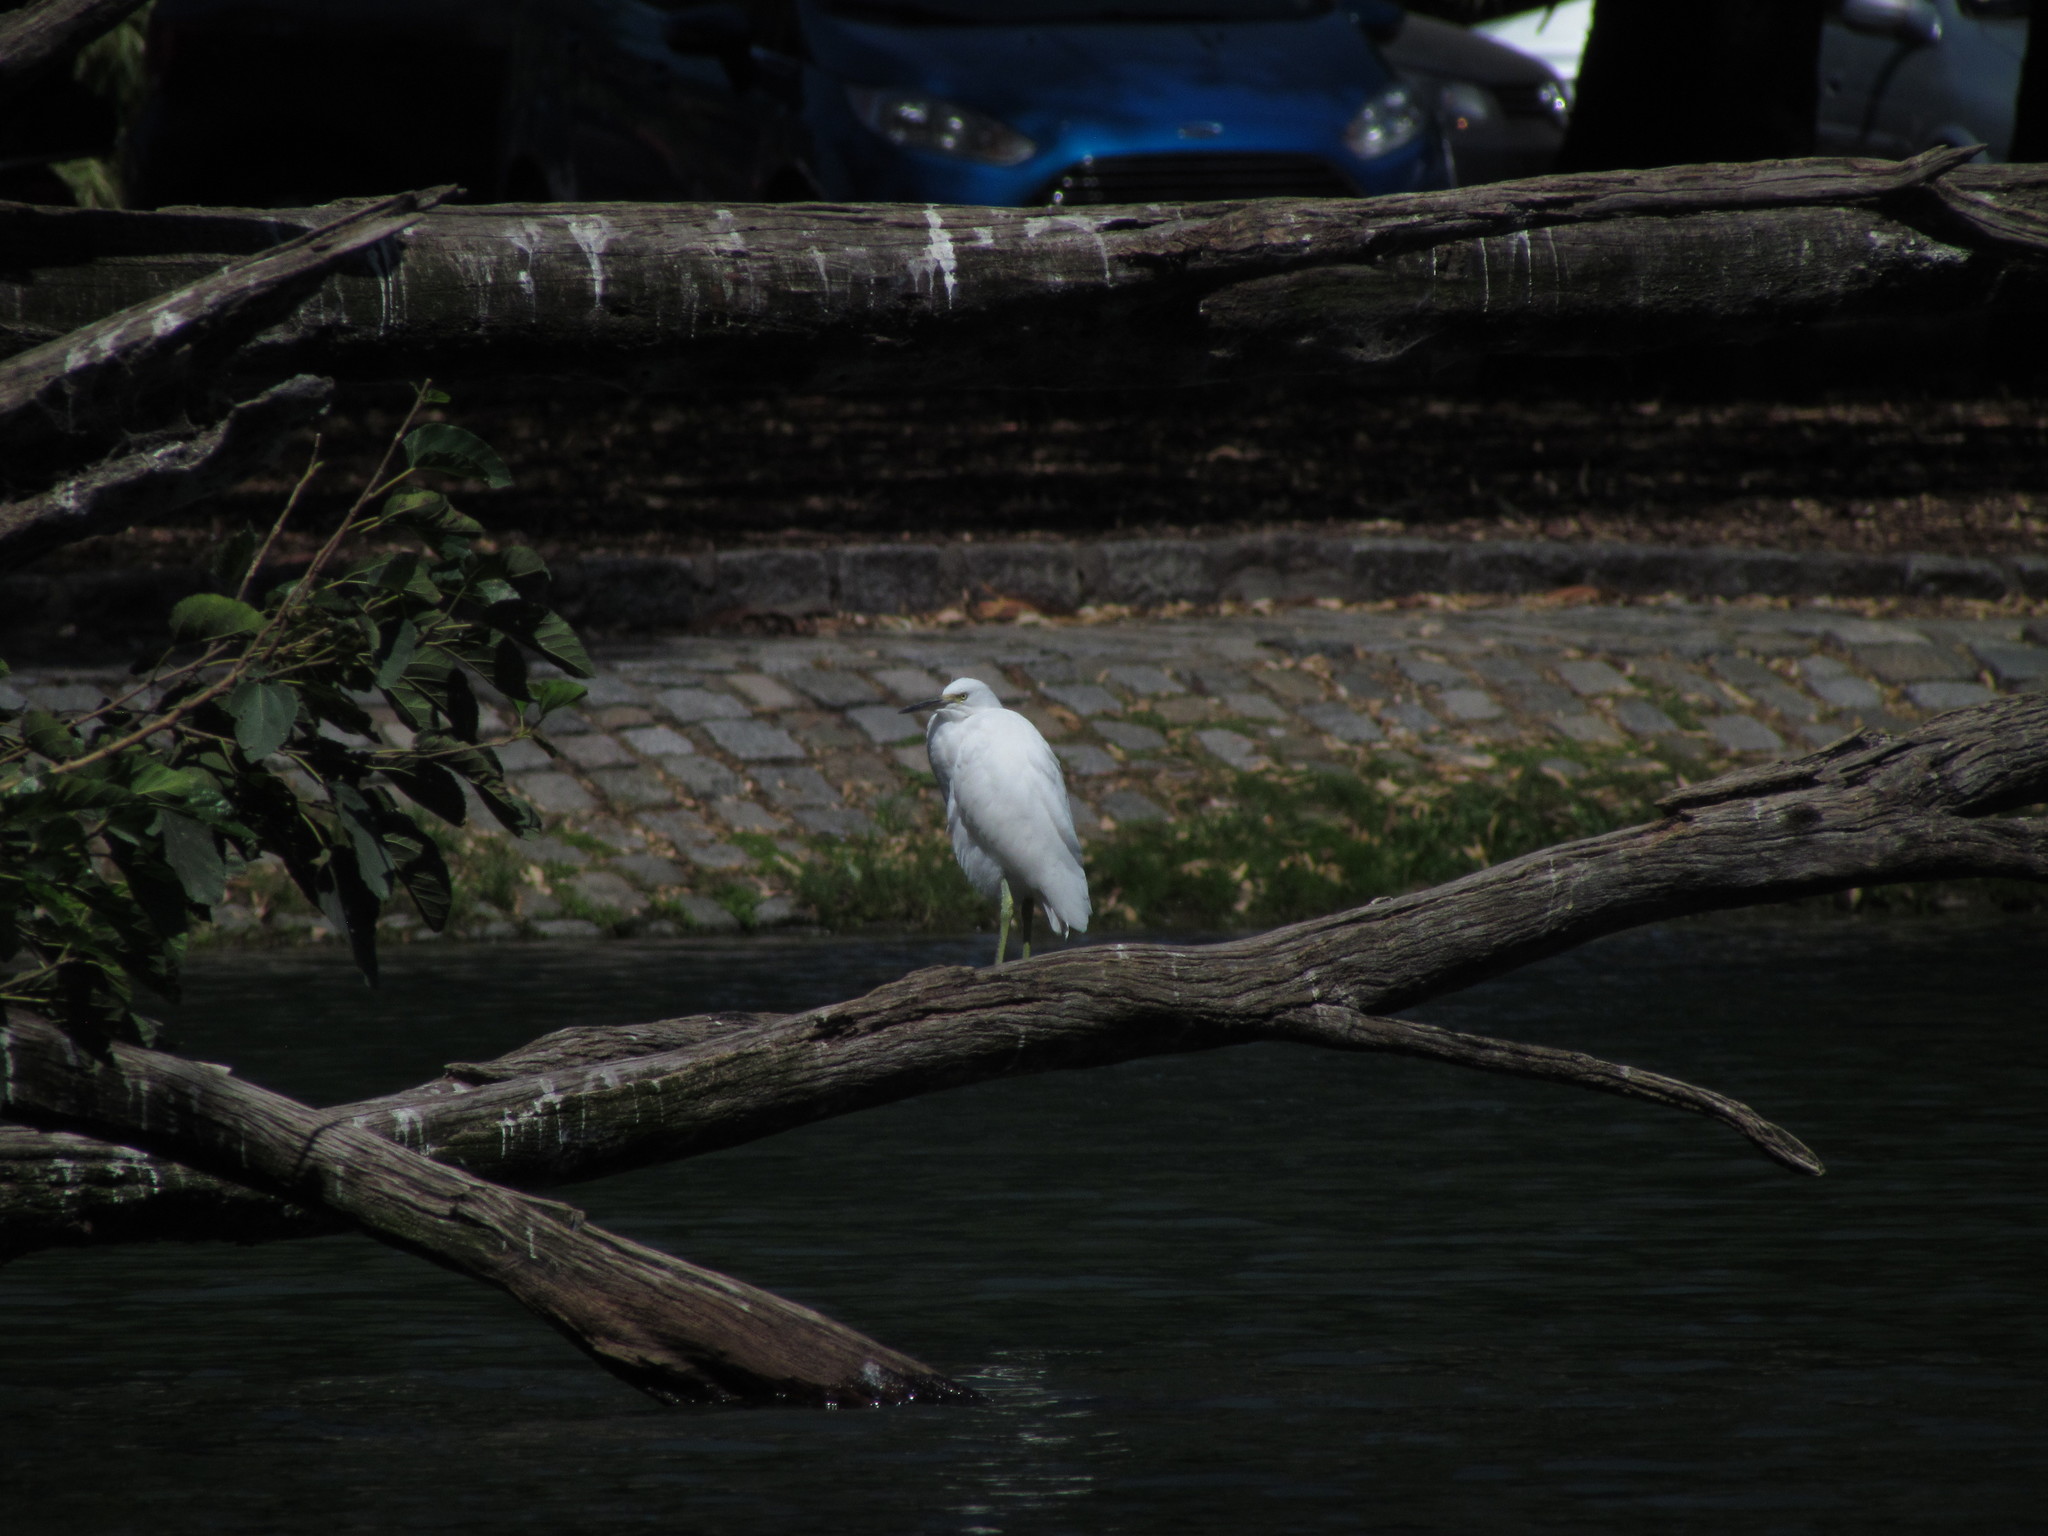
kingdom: Animalia
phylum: Chordata
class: Aves
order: Pelecaniformes
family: Ardeidae
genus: Egretta
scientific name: Egretta thula
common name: Snowy egret
